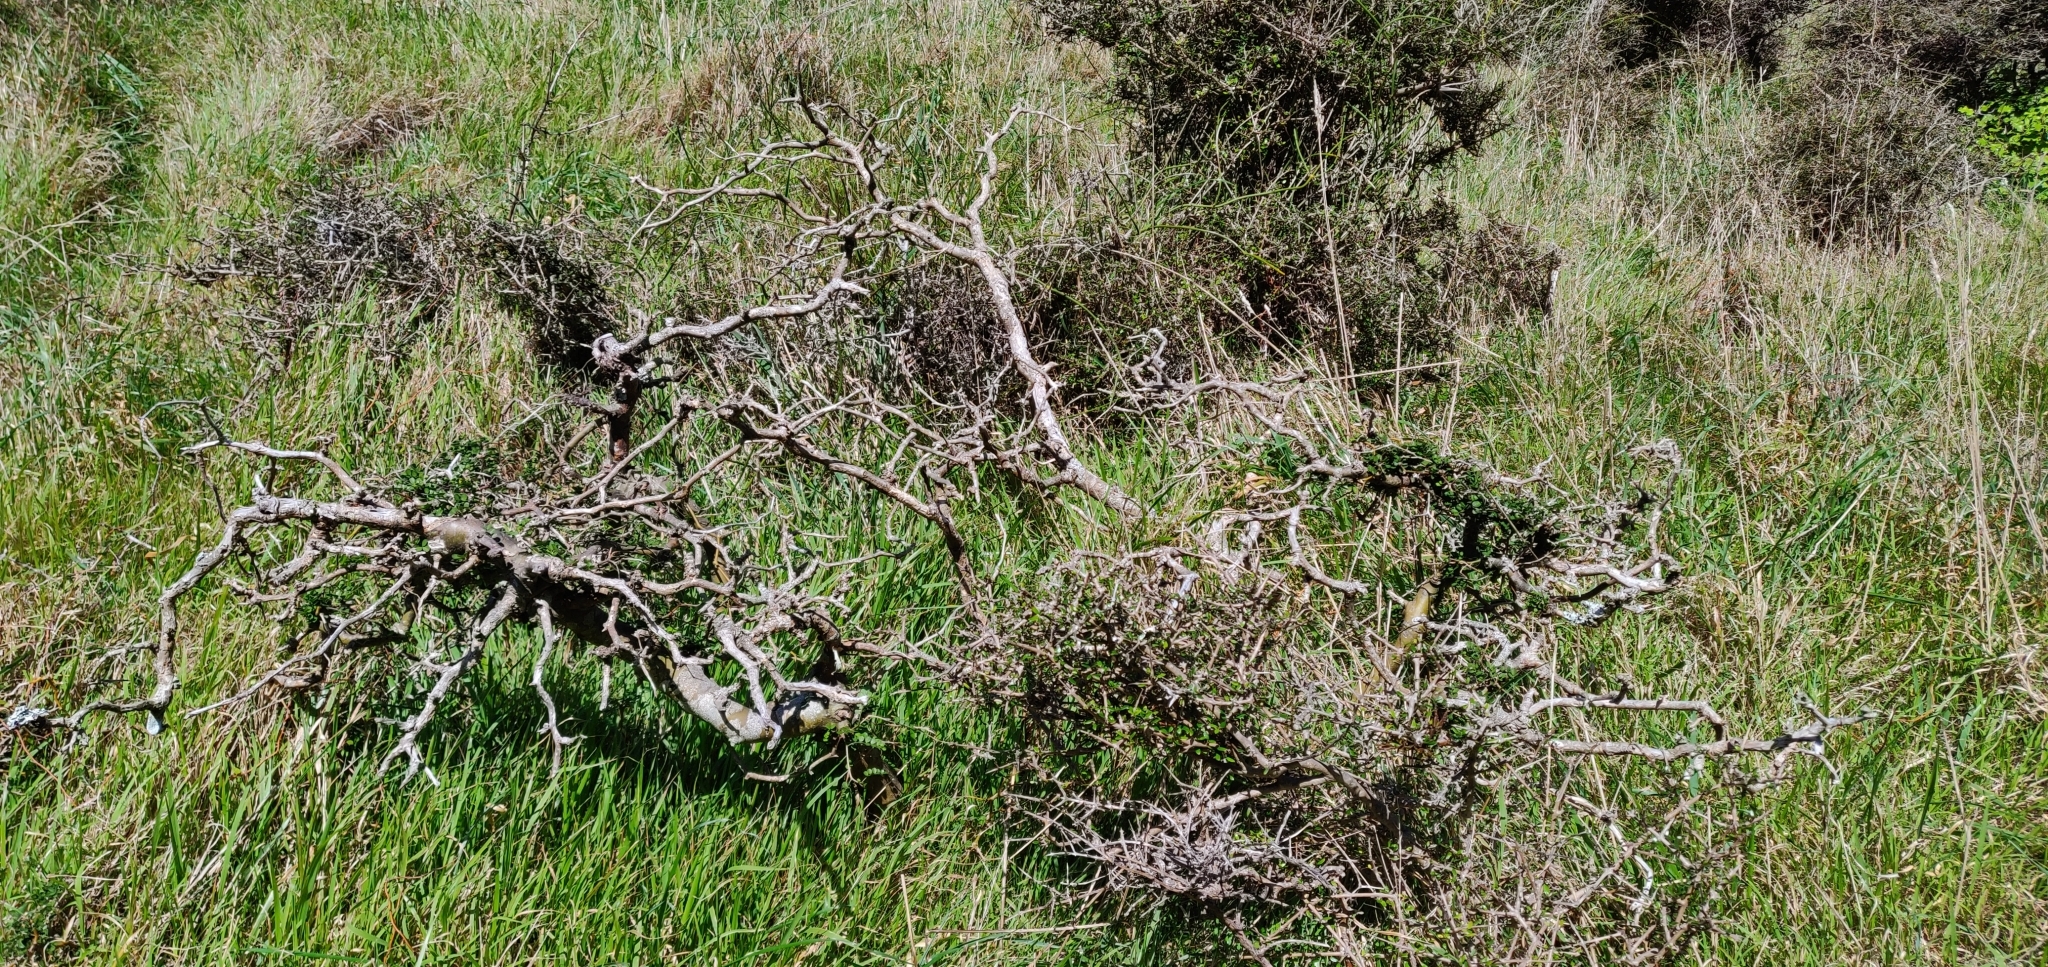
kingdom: Plantae
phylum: Tracheophyta
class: Magnoliopsida
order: Fabales
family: Fabaceae
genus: Sophora
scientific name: Sophora molloyi
